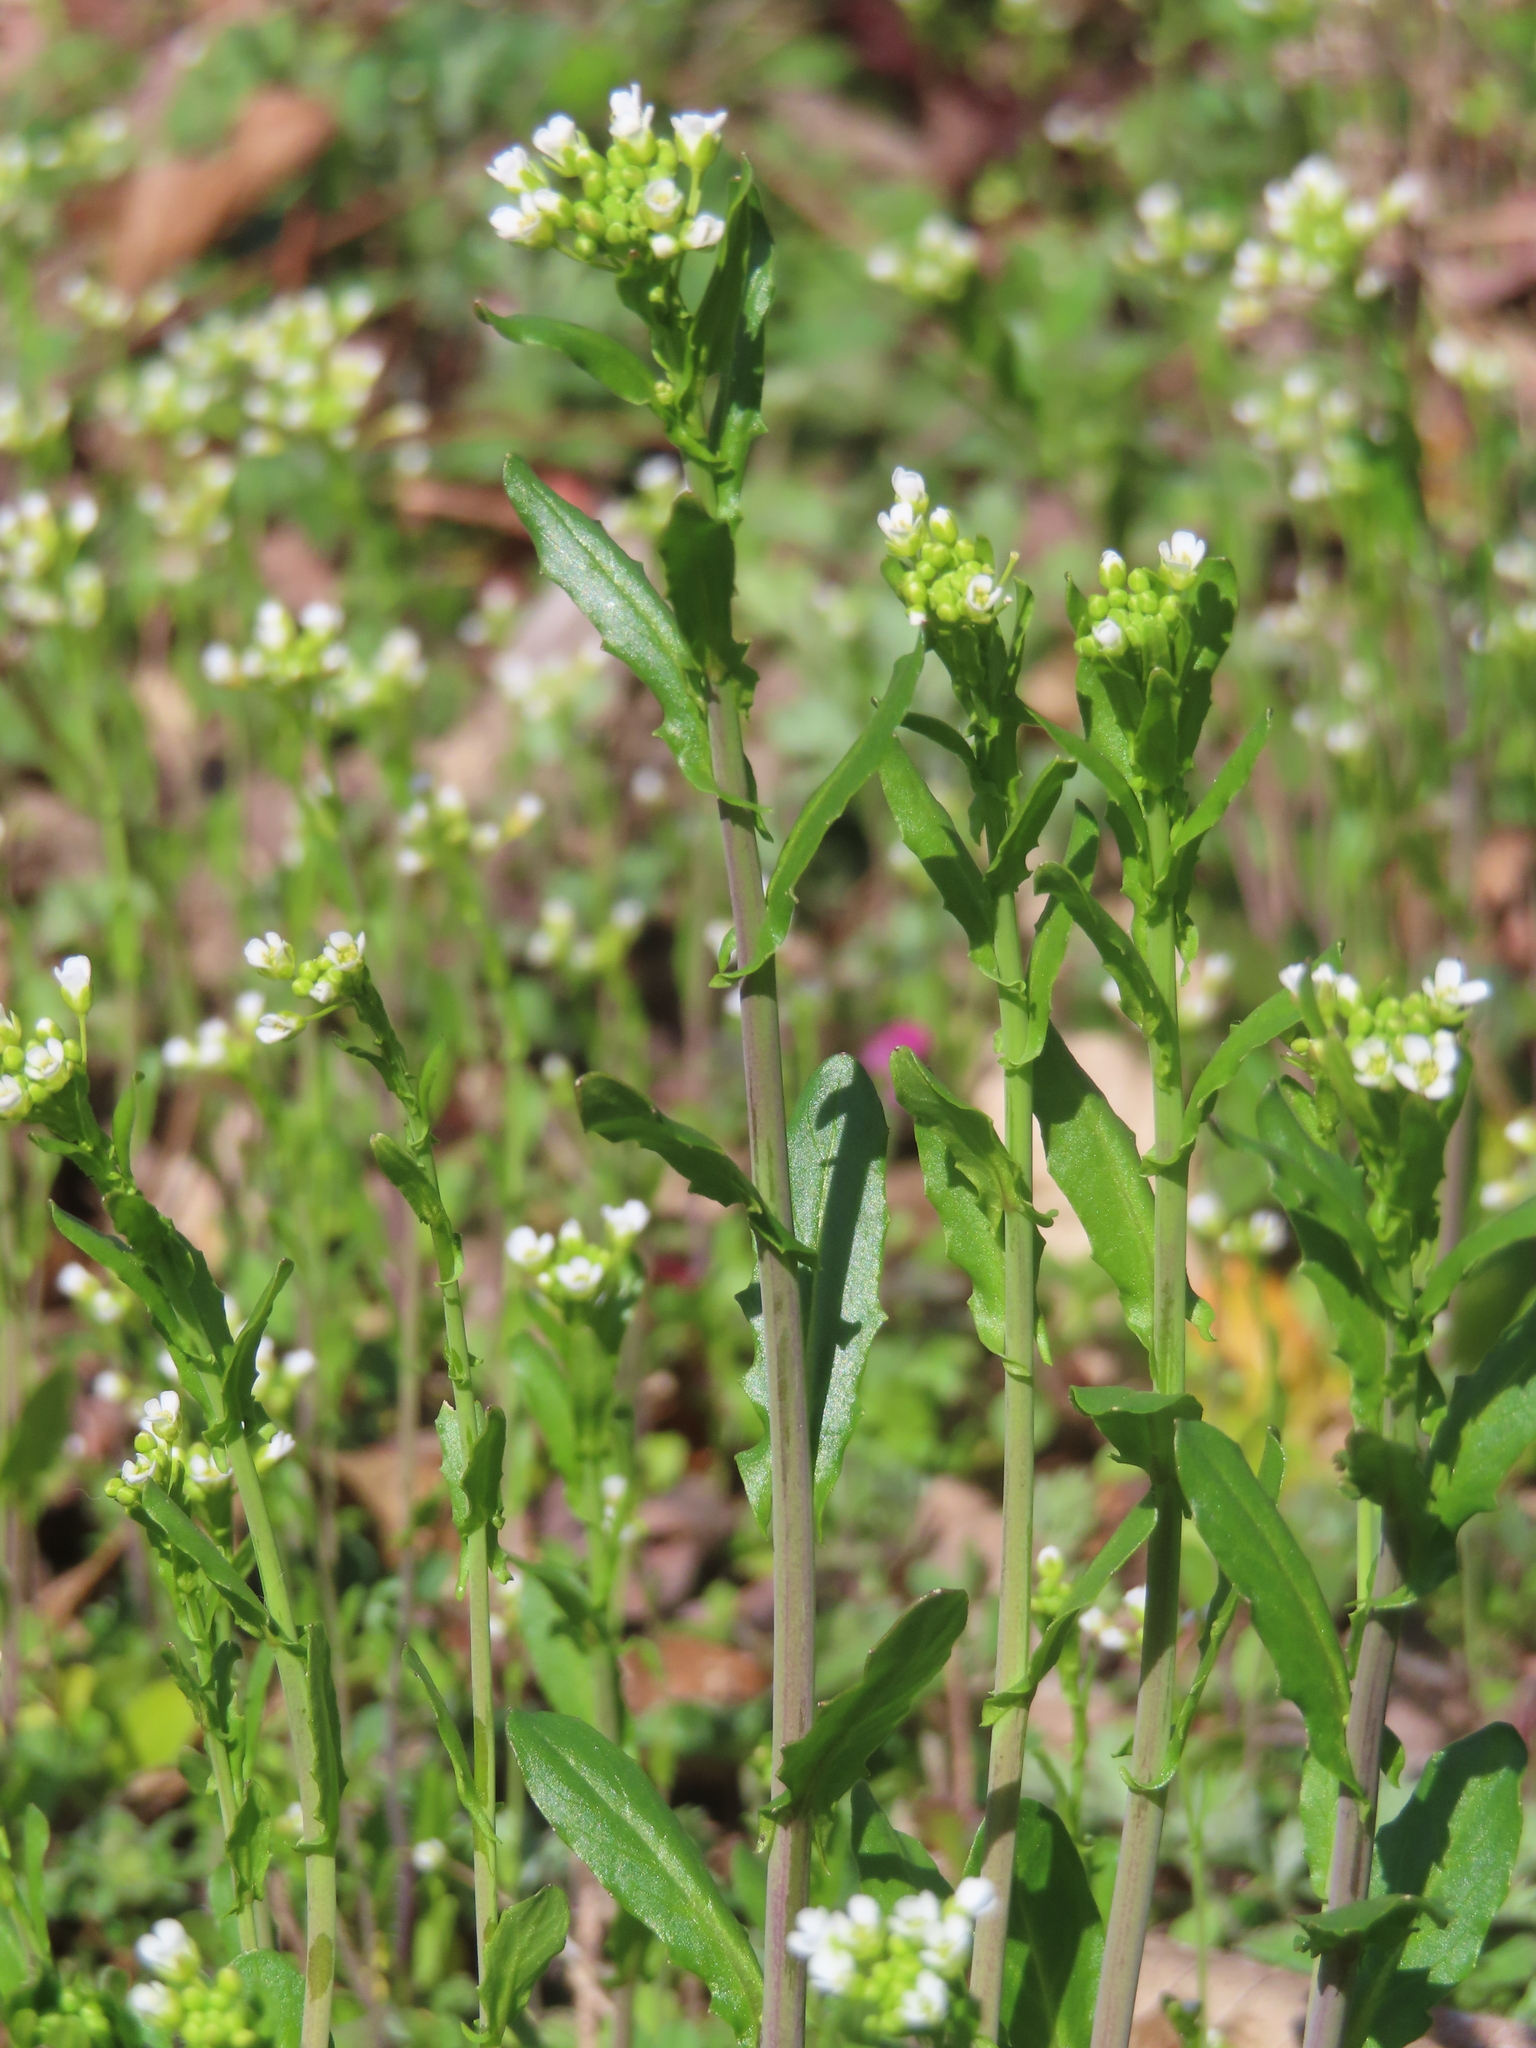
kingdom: Plantae
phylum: Tracheophyta
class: Magnoliopsida
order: Brassicales
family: Brassicaceae
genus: Mummenhoffia
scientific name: Mummenhoffia alliacea
